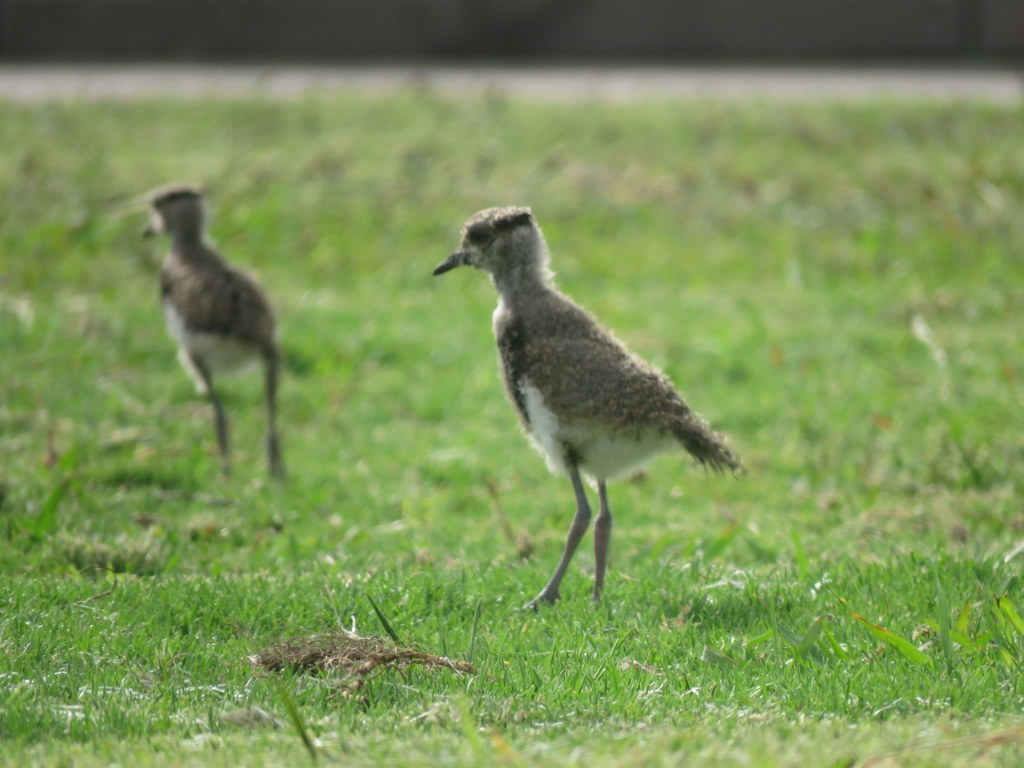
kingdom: Animalia
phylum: Chordata
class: Aves
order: Charadriiformes
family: Charadriidae
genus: Vanellus
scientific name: Vanellus chilensis
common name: Southern lapwing
